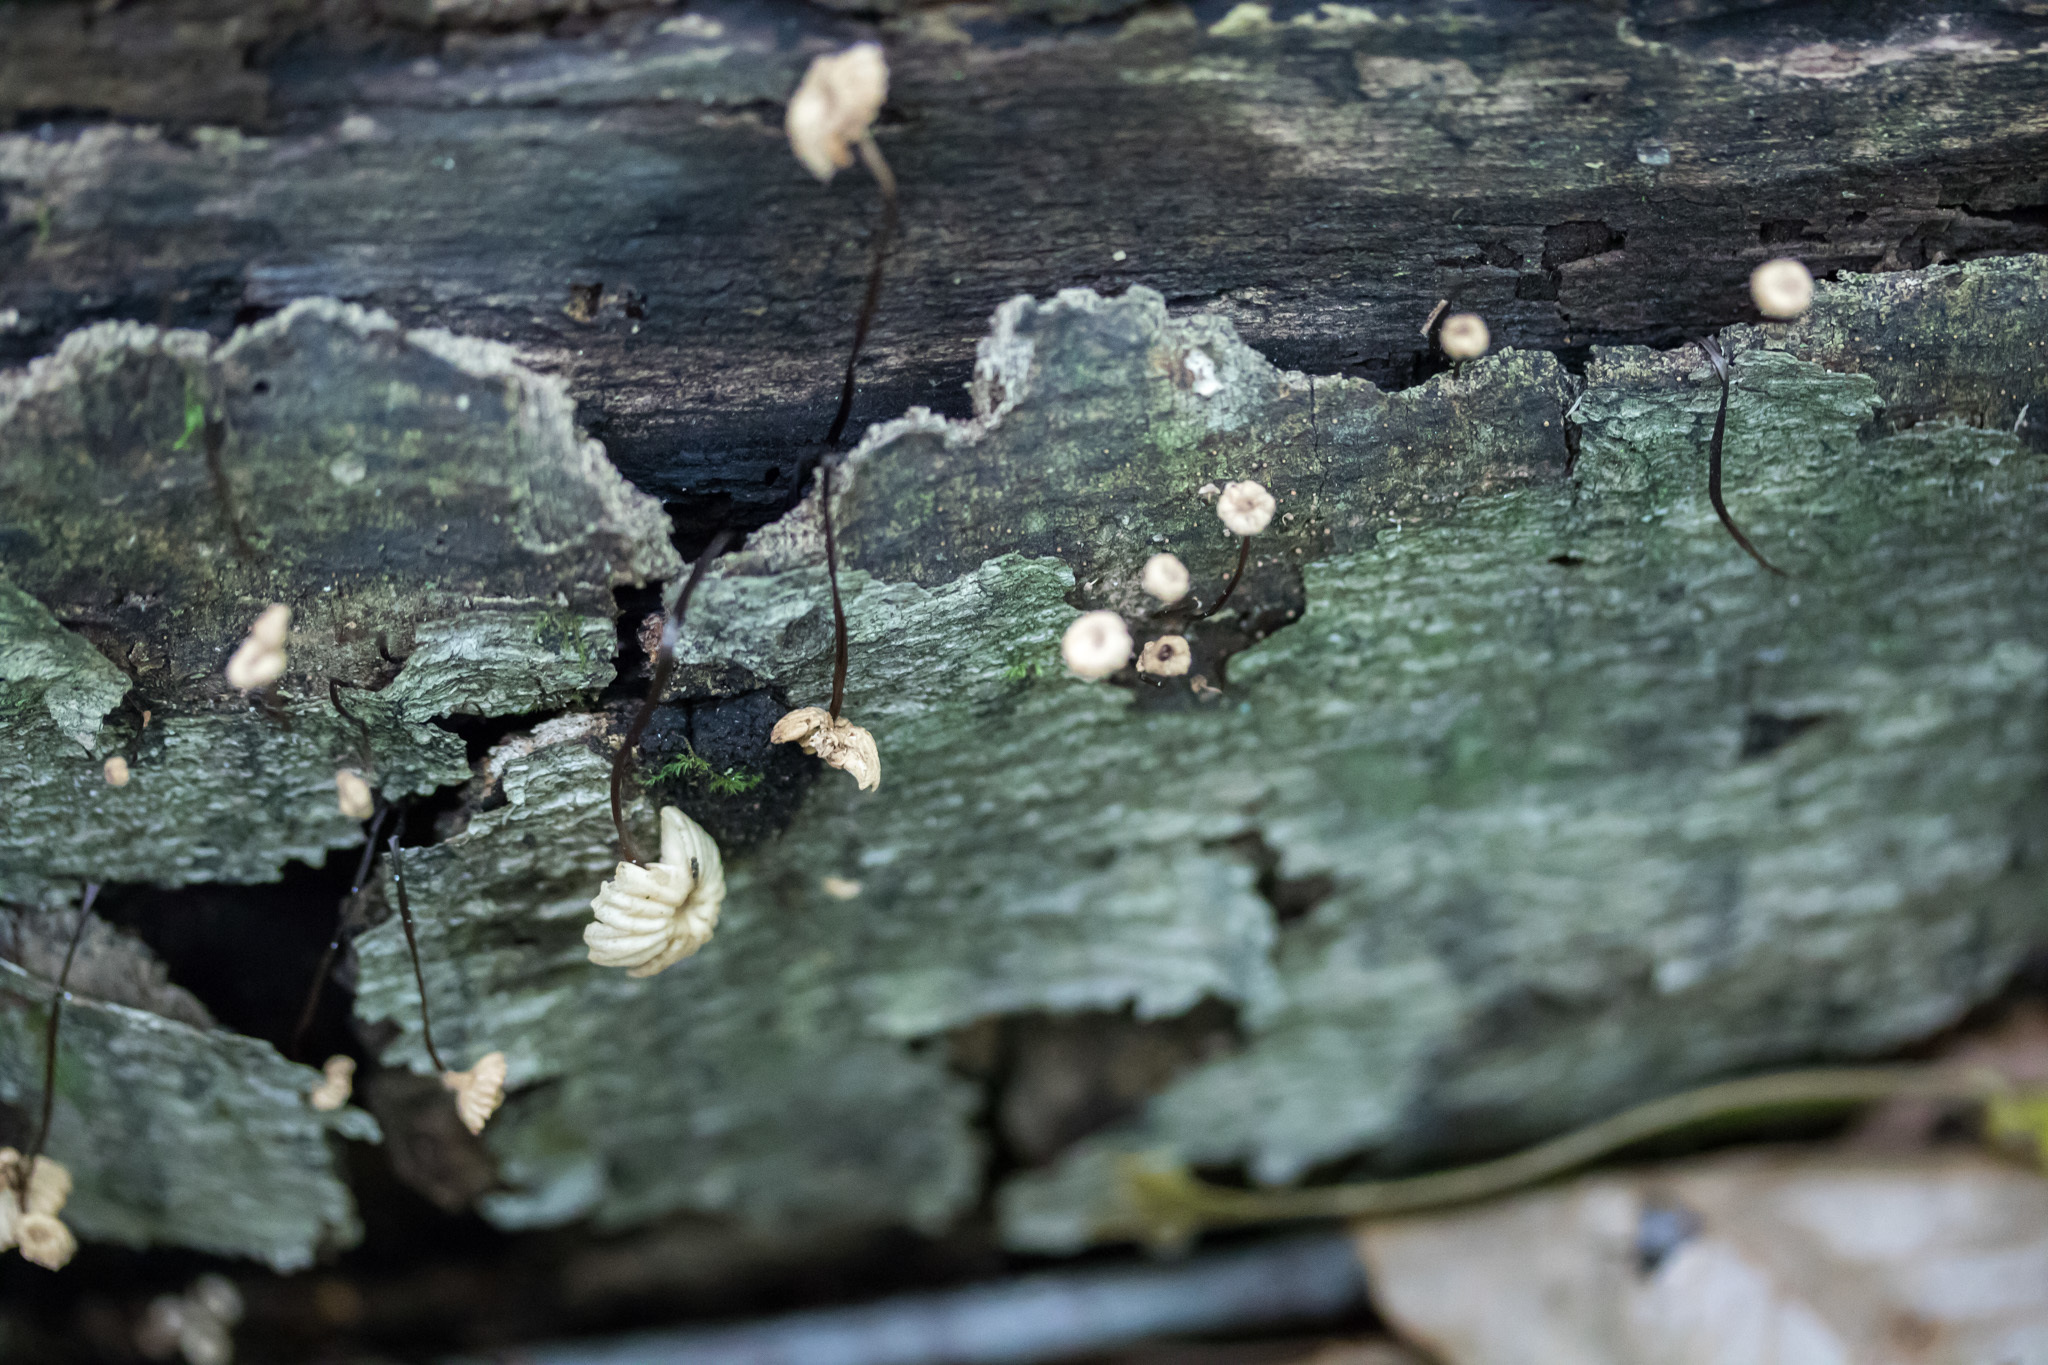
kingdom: Fungi
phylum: Basidiomycota
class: Agaricomycetes
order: Agaricales
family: Marasmiaceae
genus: Marasmius
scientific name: Marasmius rotula
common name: Collared parachute
